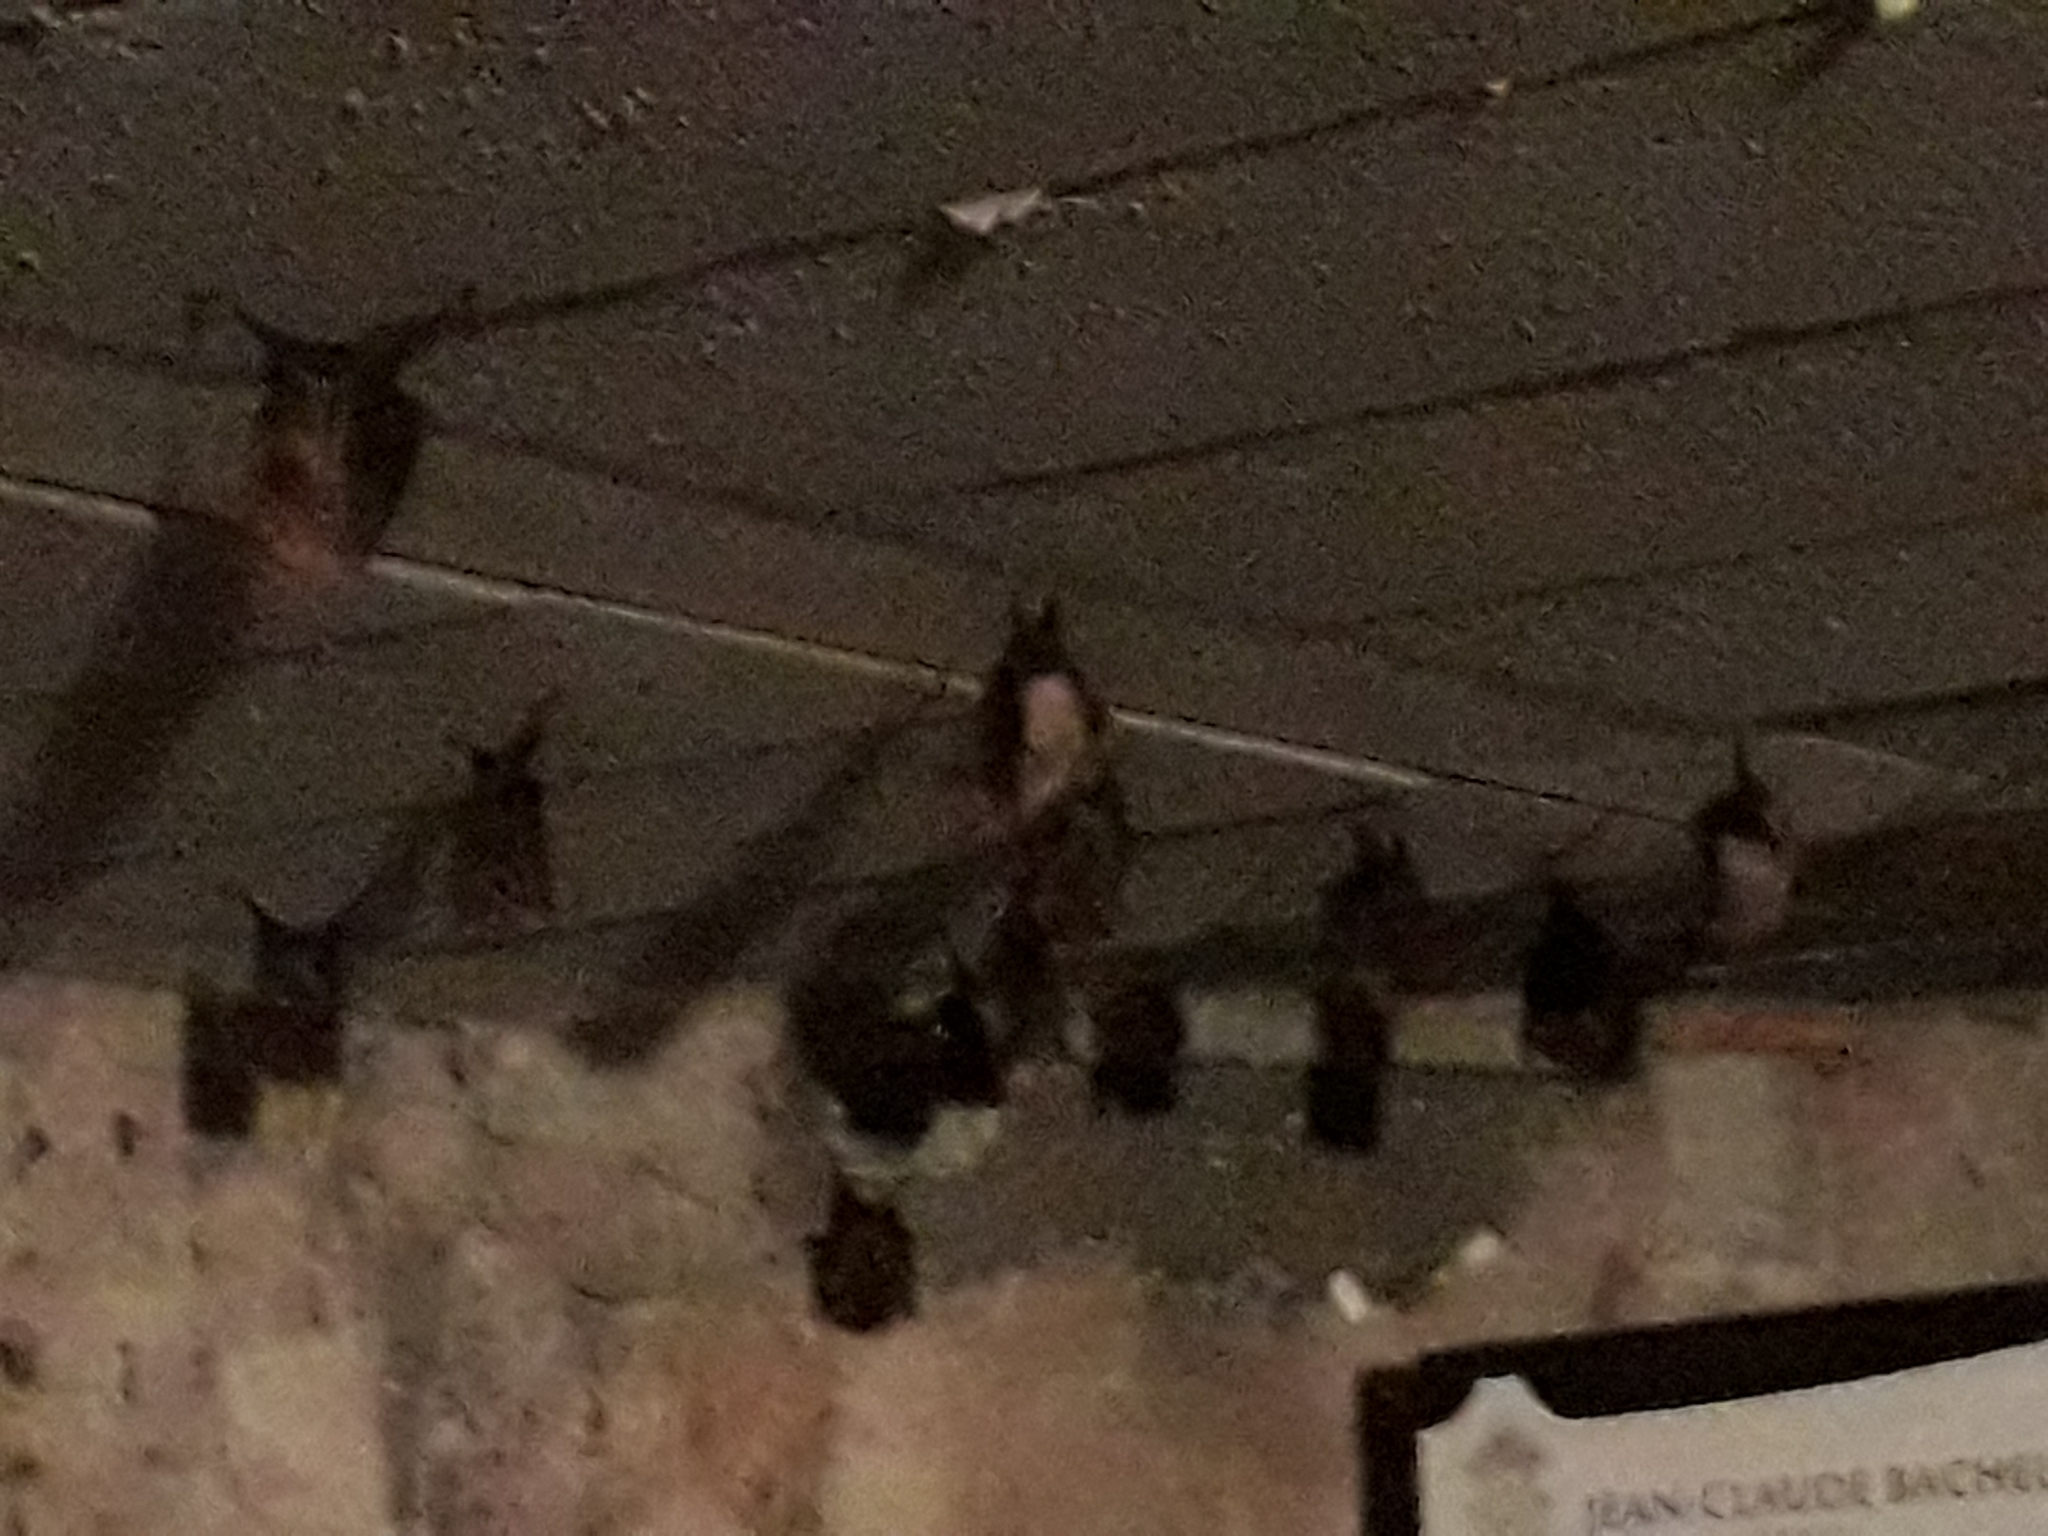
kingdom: Animalia
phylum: Chordata
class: Mammalia
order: Chiroptera
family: Rhinolophidae
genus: Rhinolophus
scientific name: Rhinolophus hipposideros
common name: Lesser horseshoe bat
